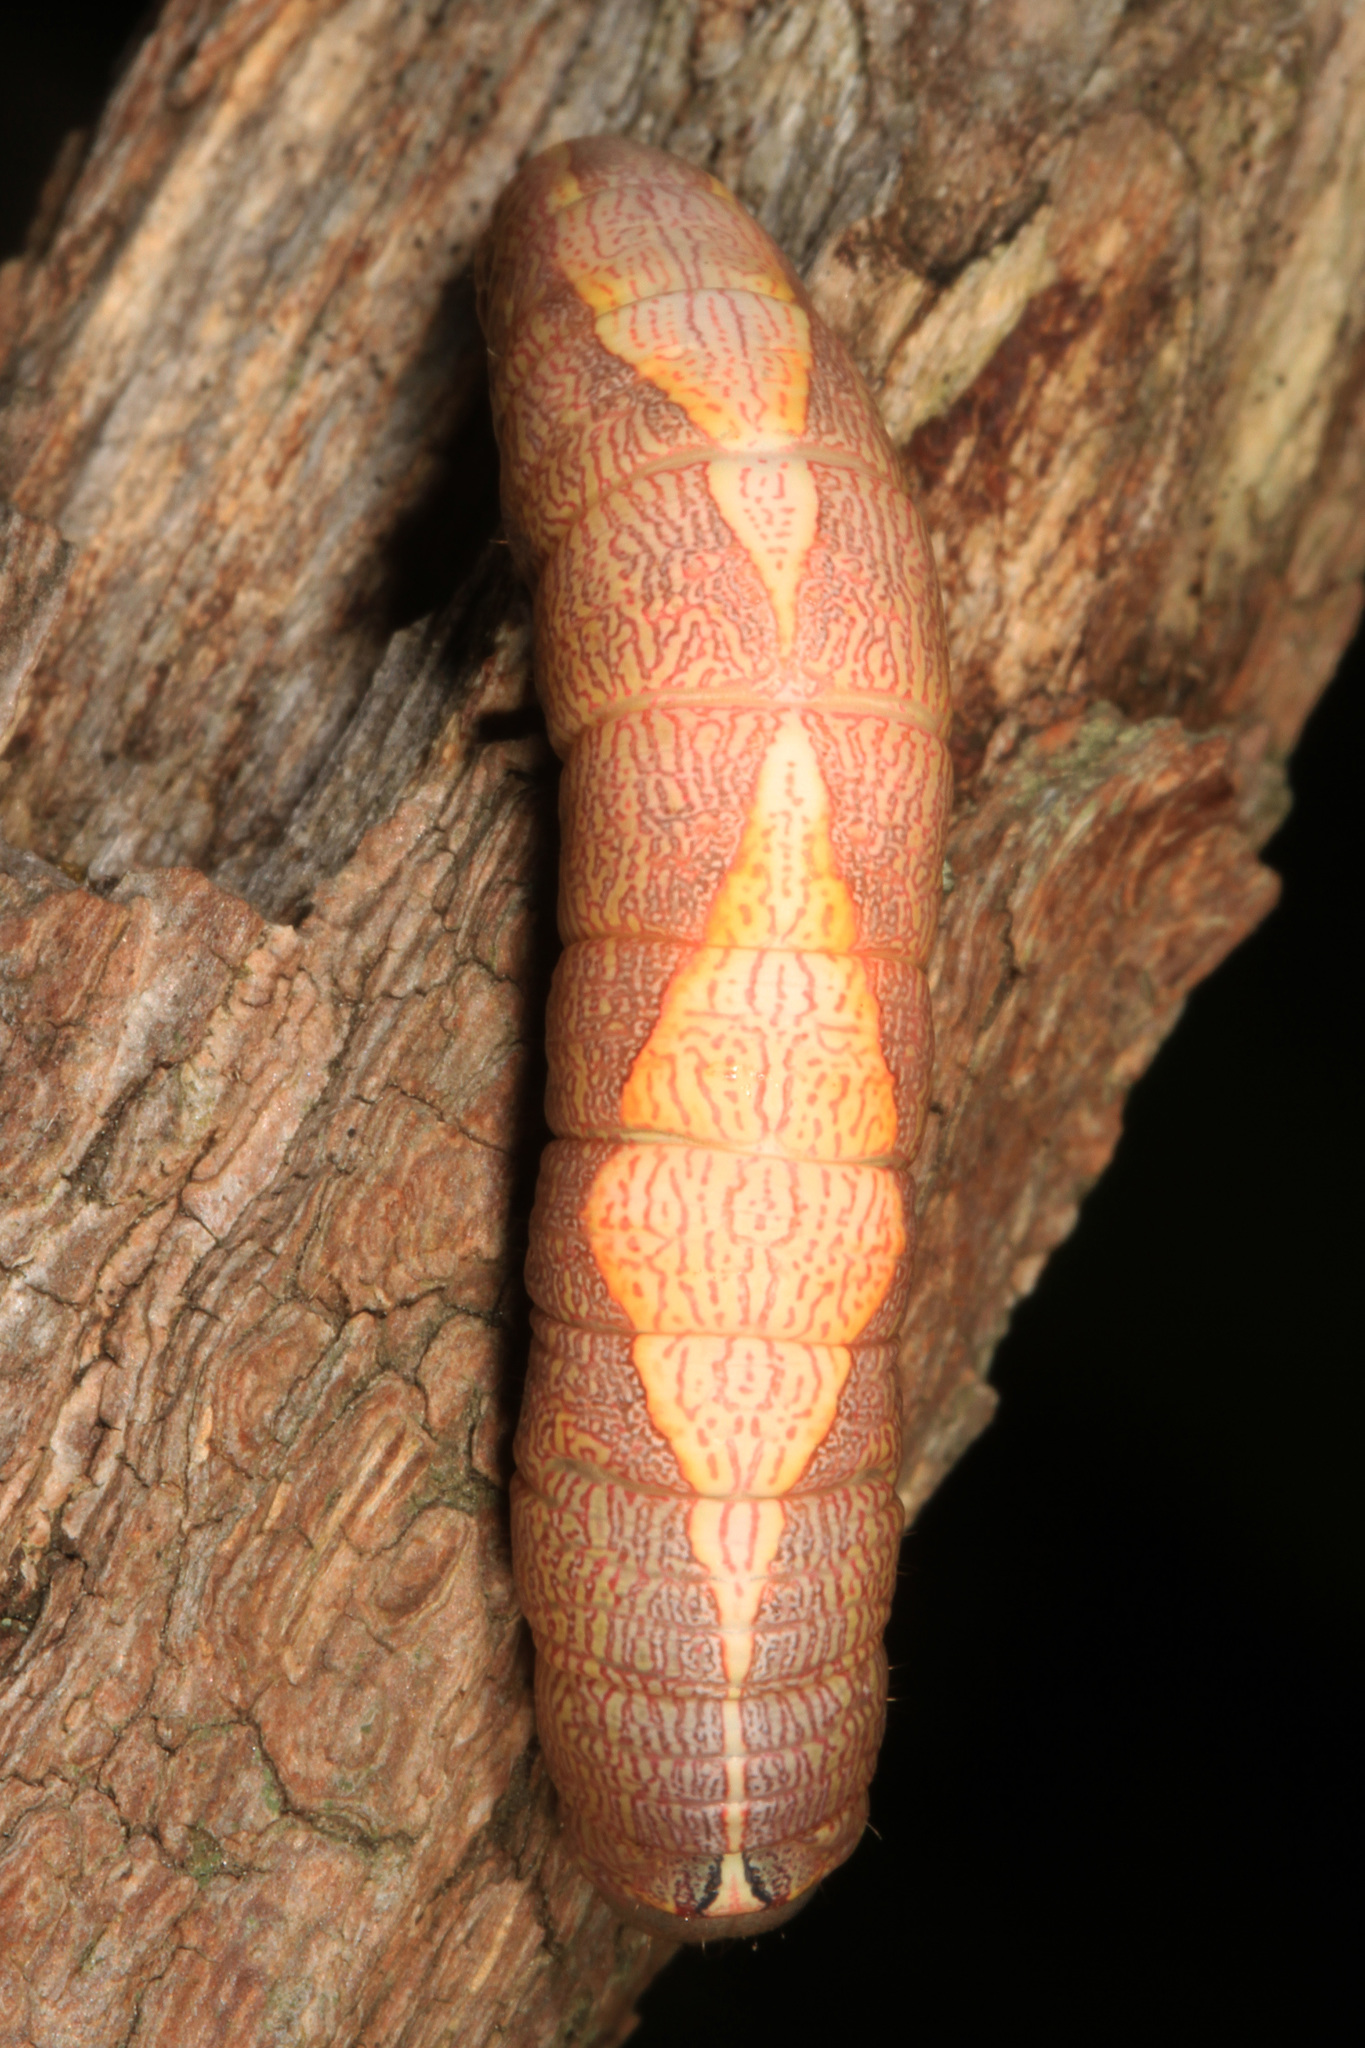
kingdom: Animalia
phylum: Arthropoda
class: Insecta
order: Lepidoptera
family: Notodontidae
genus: Heterocampa
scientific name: Heterocampa obliqua
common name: Oblique heterocampa
